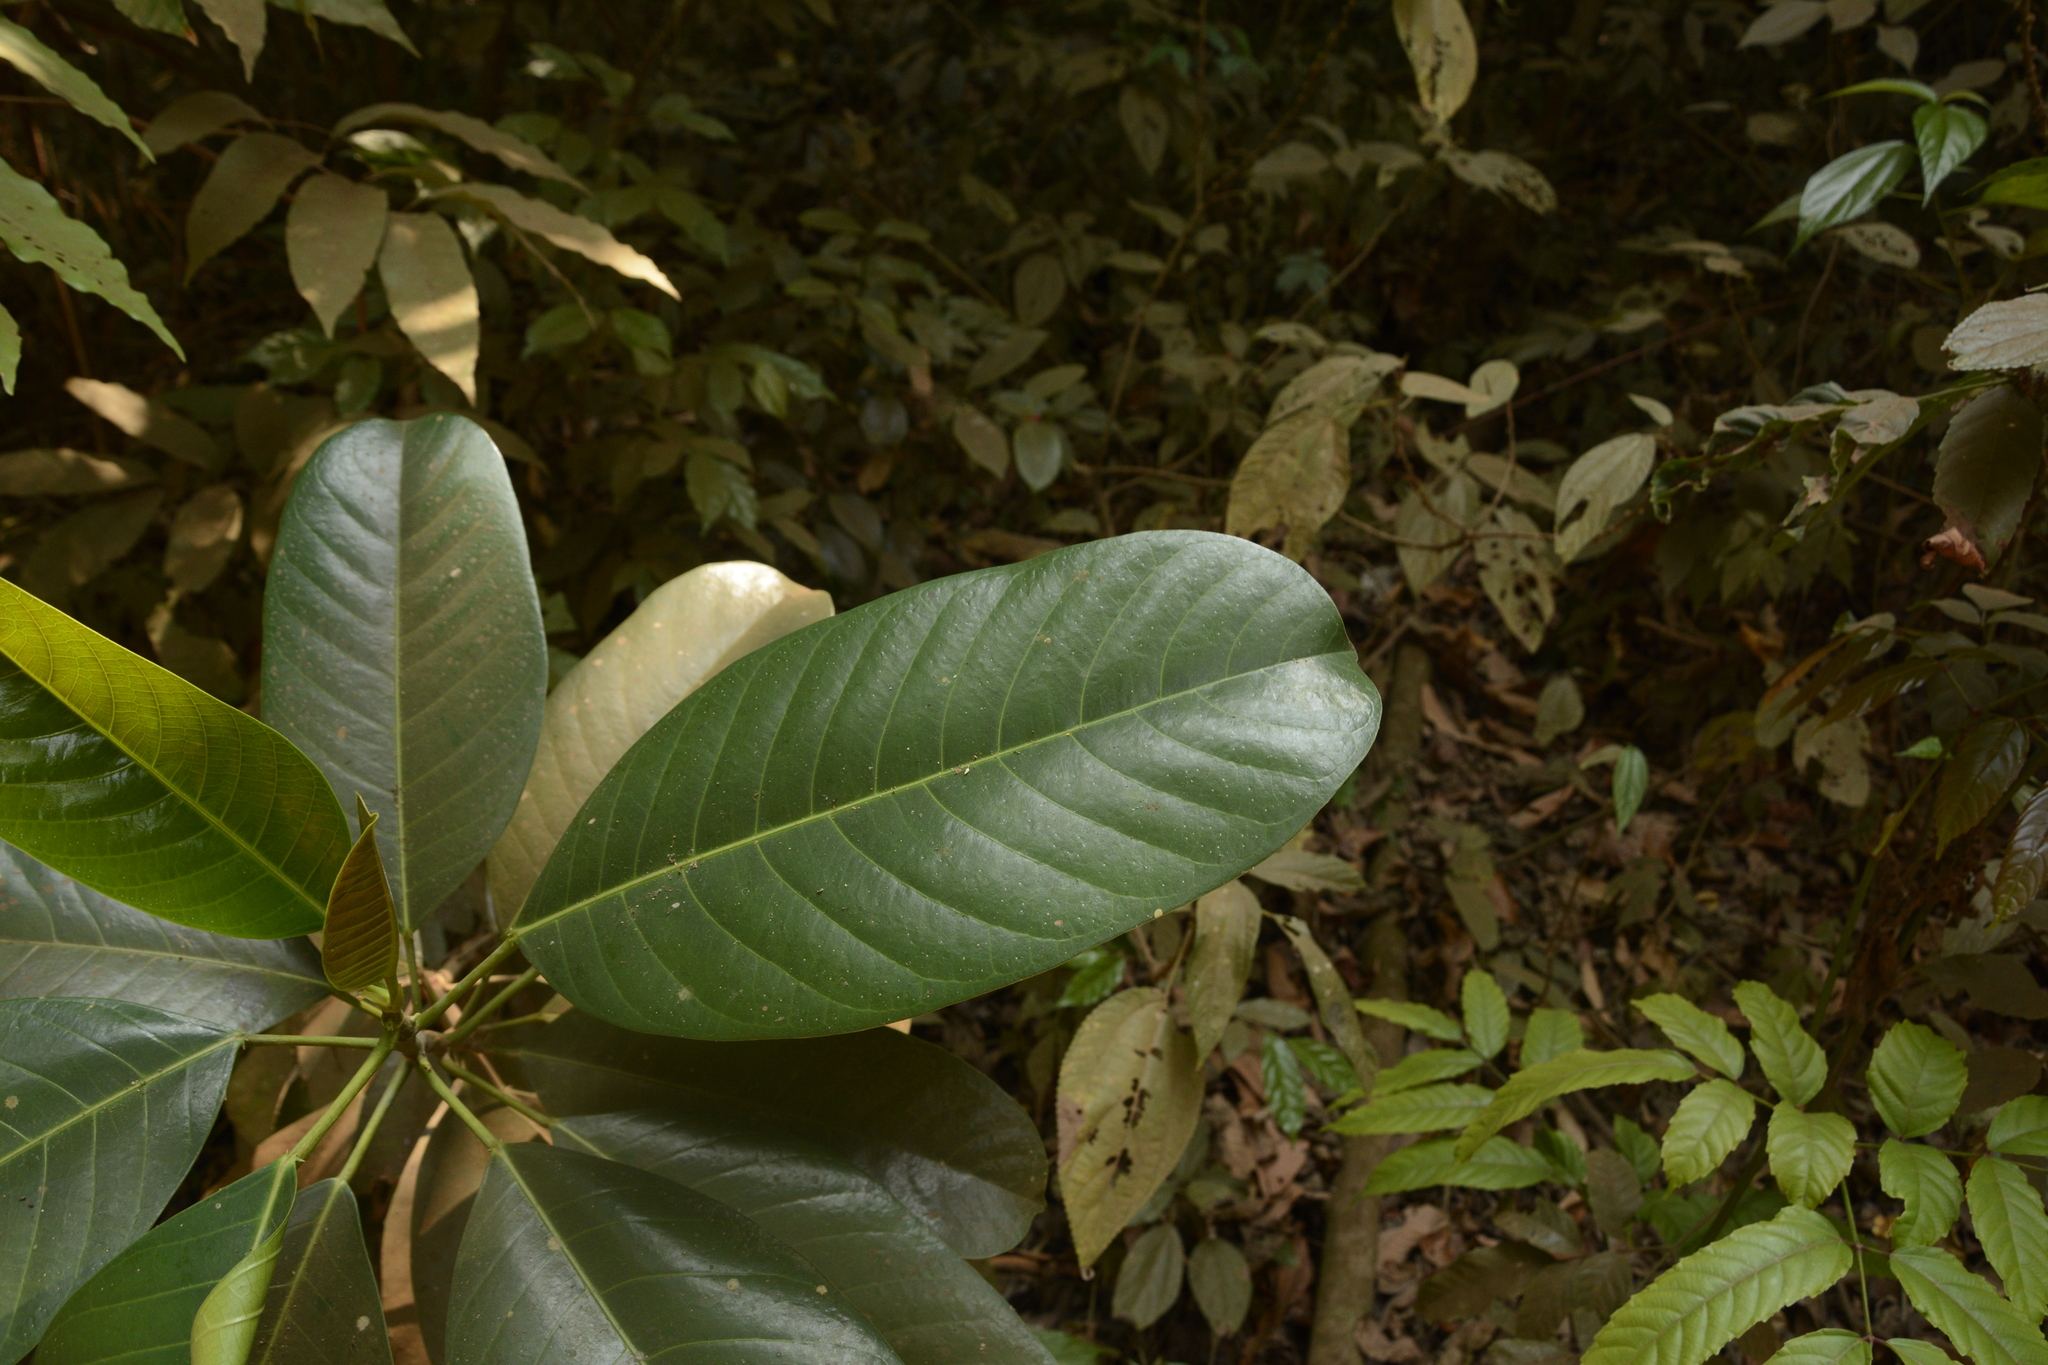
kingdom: Plantae
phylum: Tracheophyta
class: Magnoliopsida
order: Rosales
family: Moraceae
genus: Ficus
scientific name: Ficus callosa
